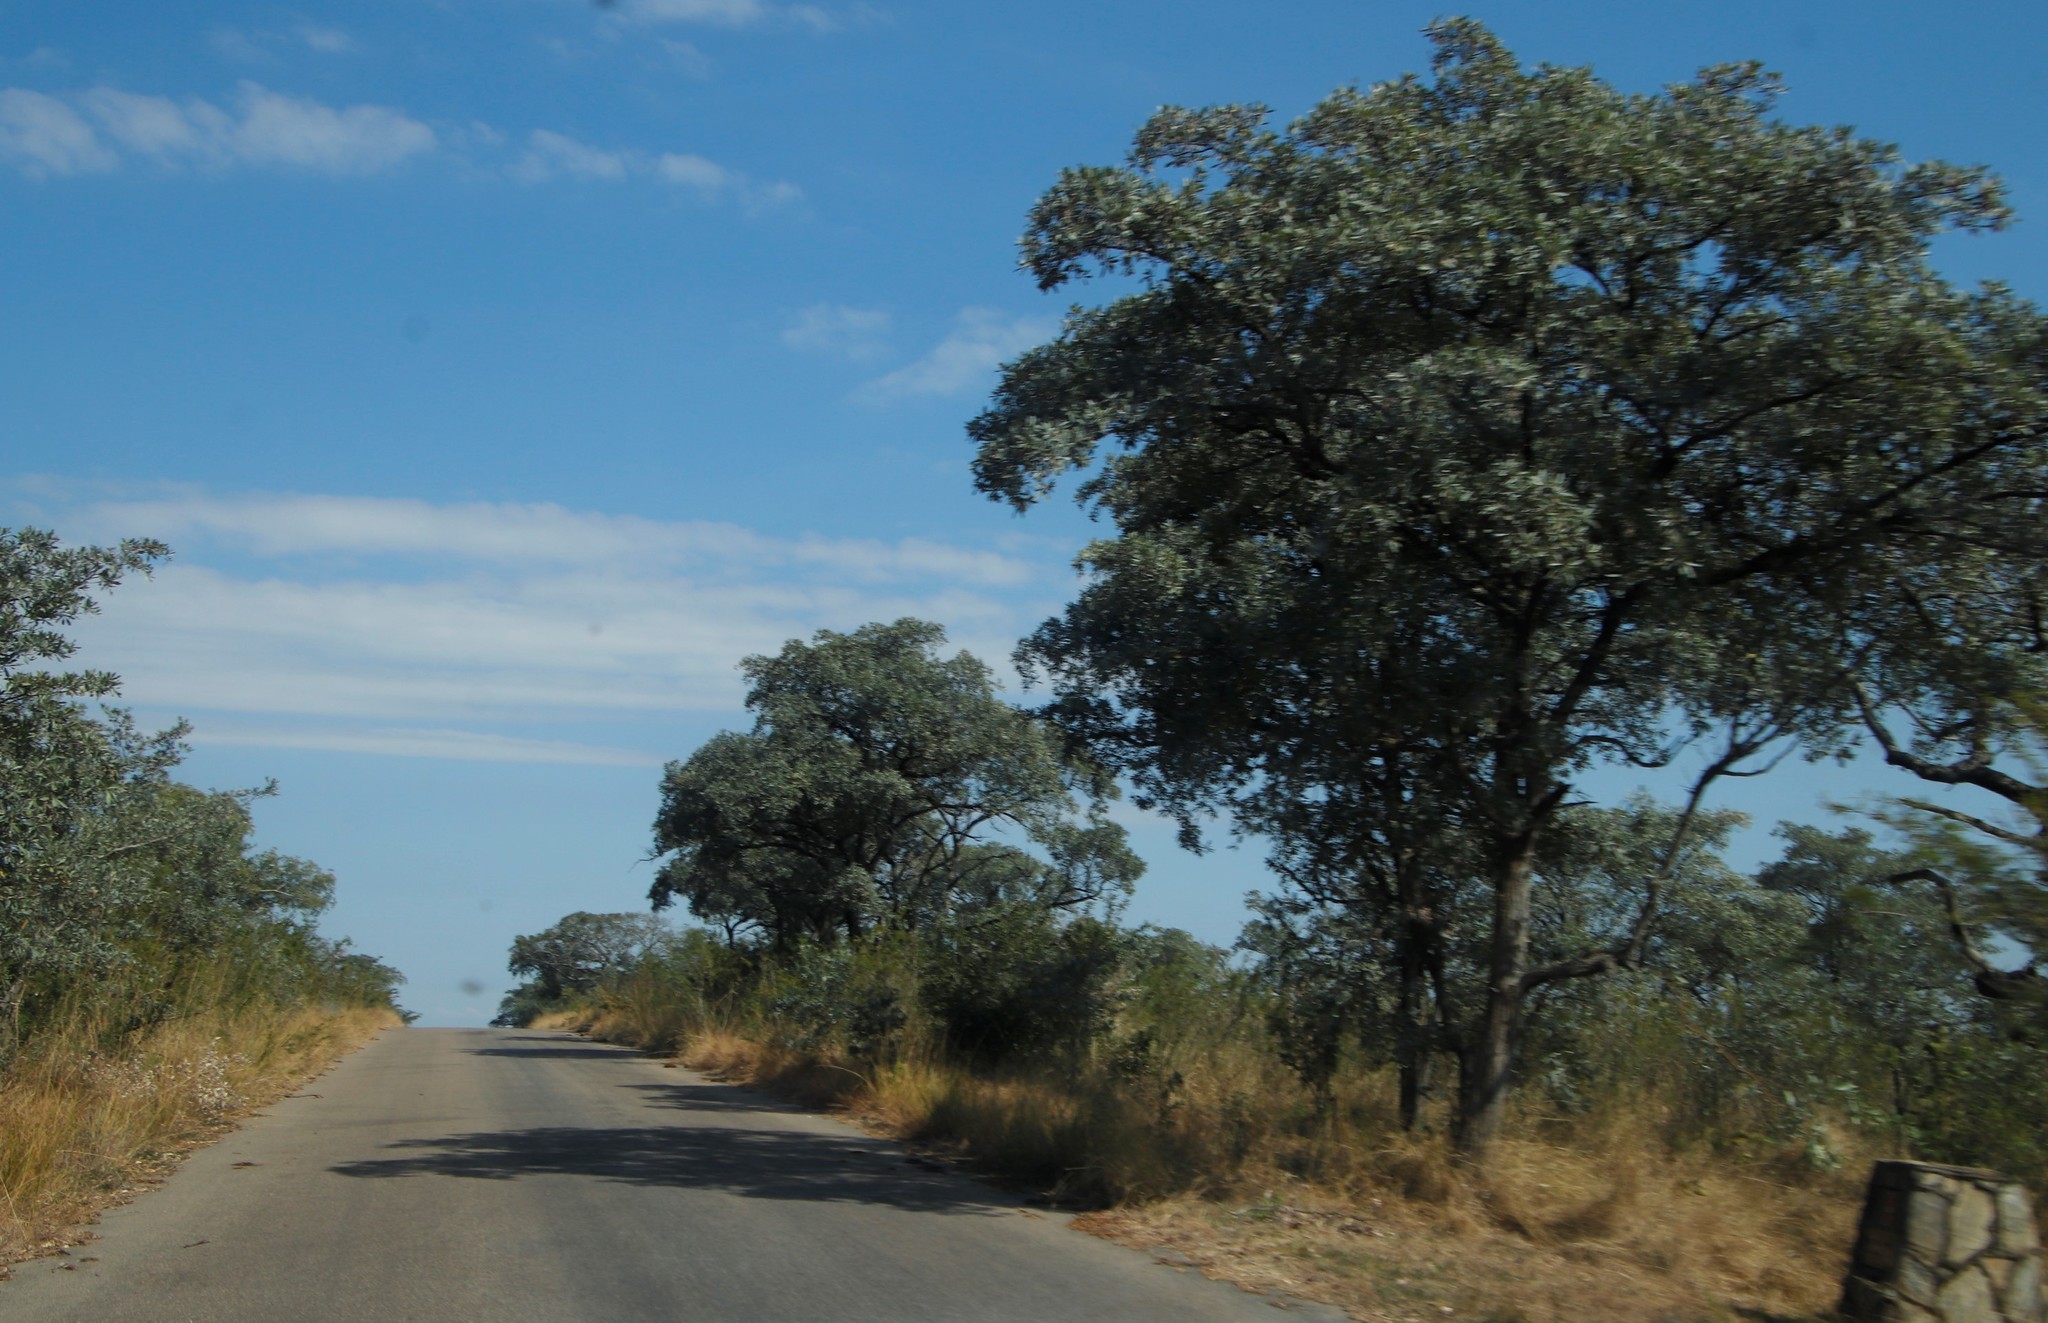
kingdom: Plantae
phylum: Tracheophyta
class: Magnoliopsida
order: Myrtales
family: Combretaceae
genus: Terminalia
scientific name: Terminalia sericea
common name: Clusterleaf
